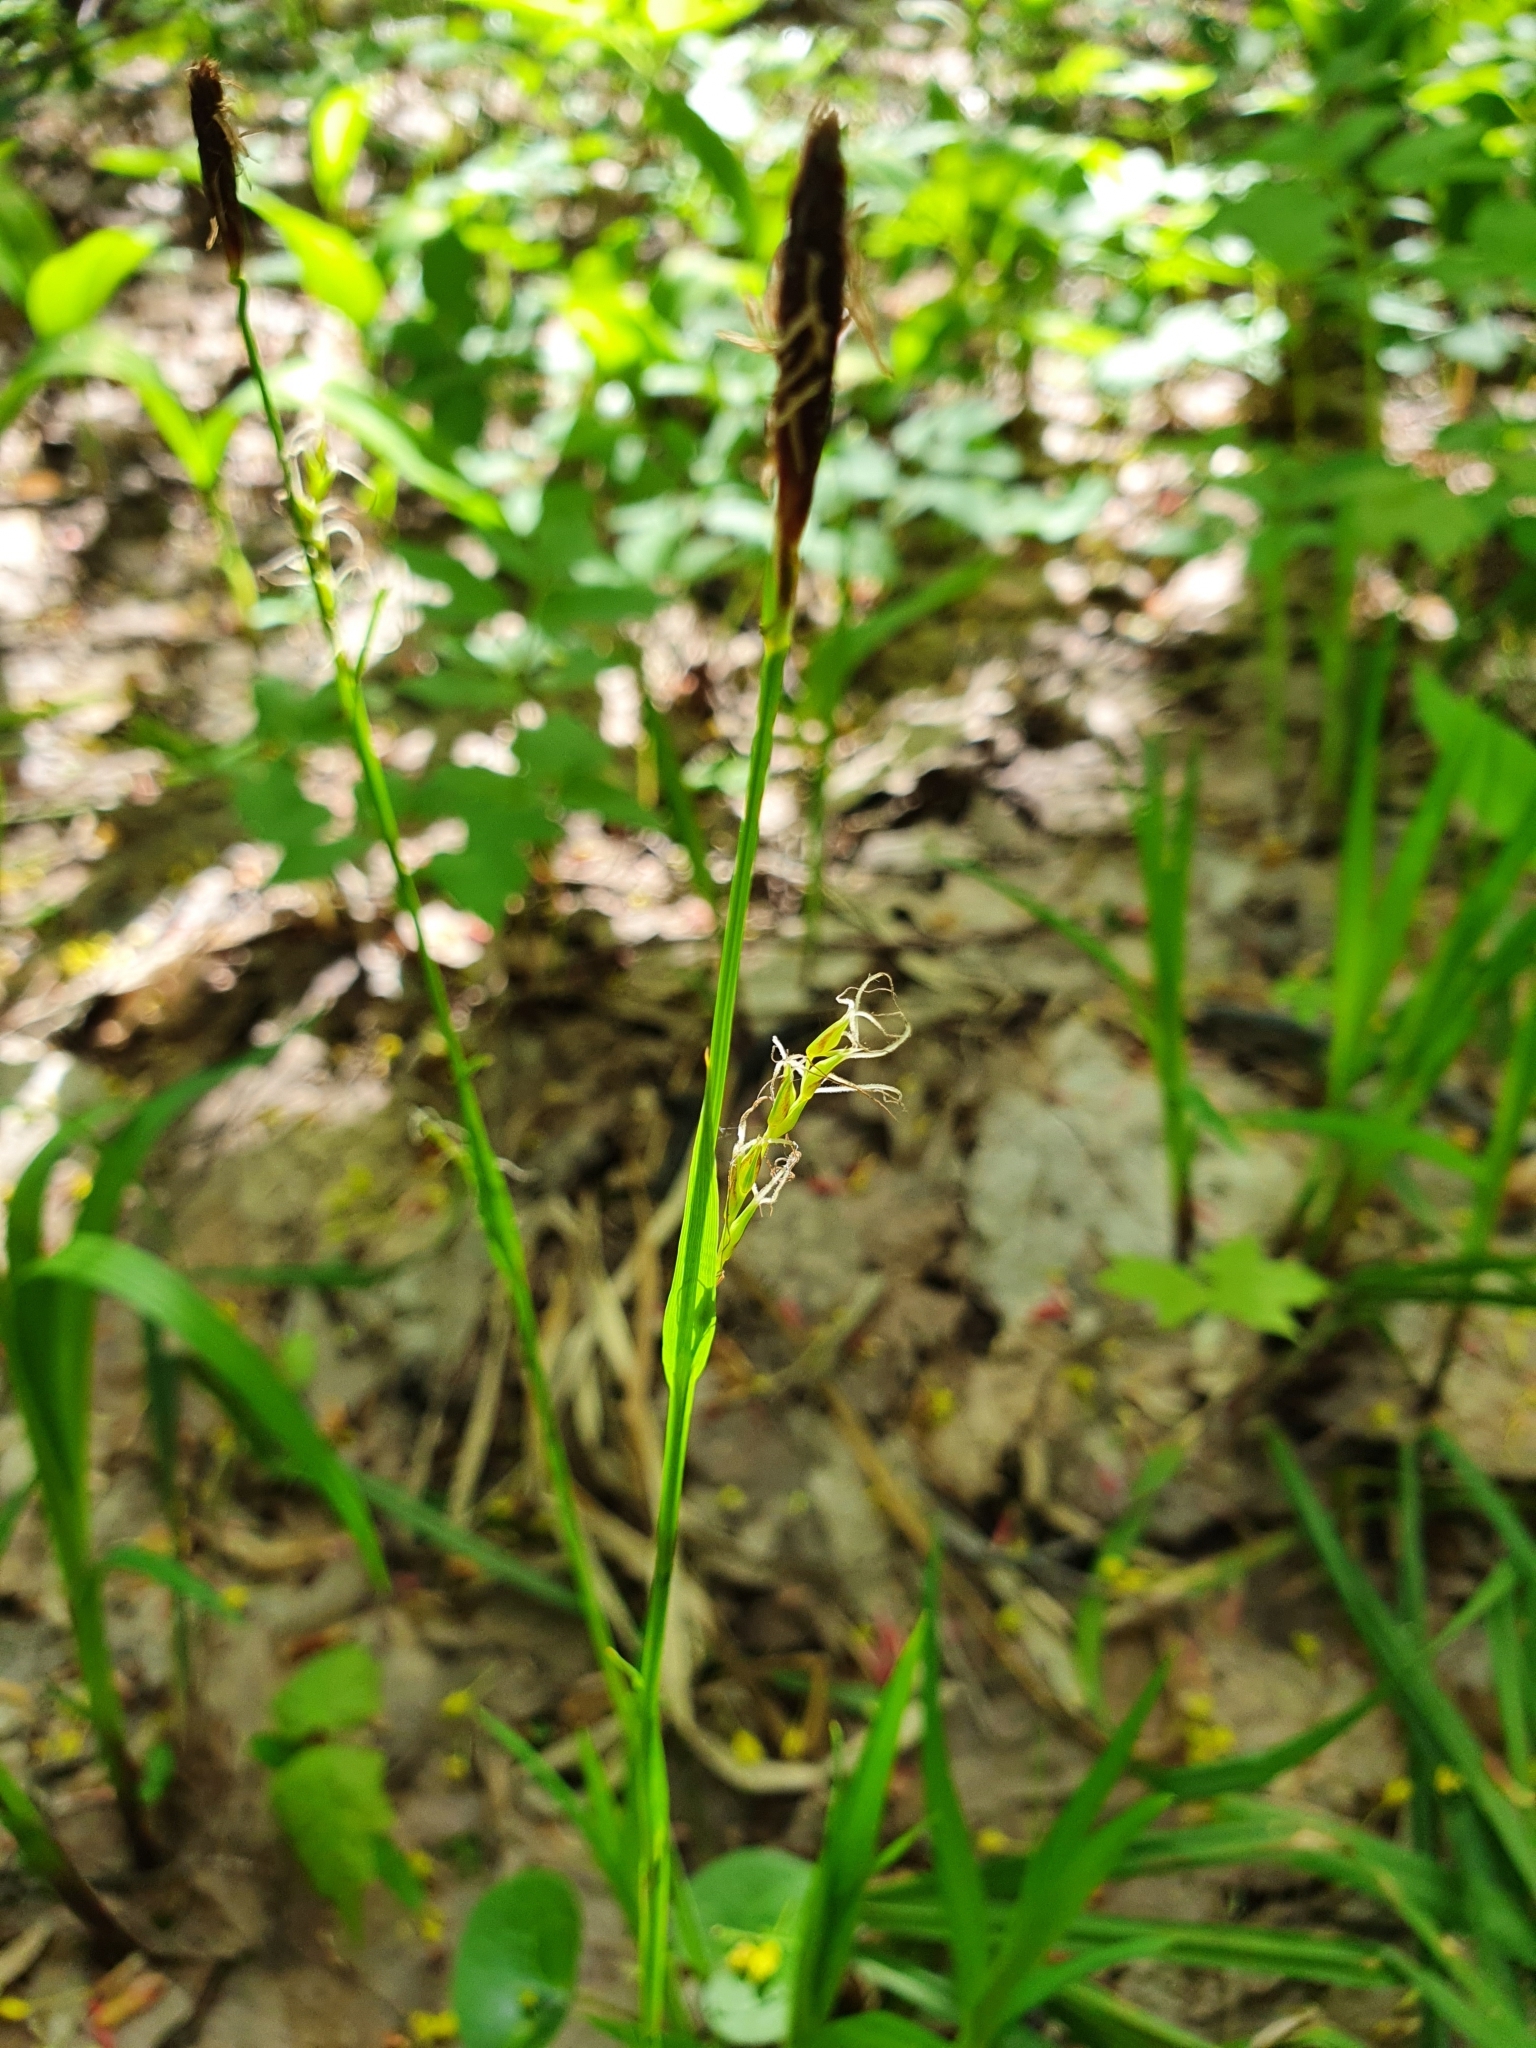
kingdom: Plantae
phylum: Tracheophyta
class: Liliopsida
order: Poales
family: Cyperaceae
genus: Carex
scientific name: Carex pilosa
